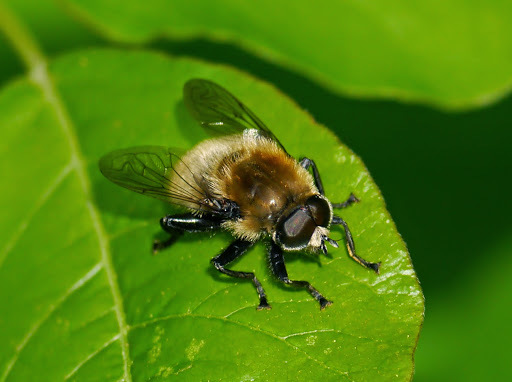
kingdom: Animalia
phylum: Arthropoda
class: Insecta
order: Diptera
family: Syrphidae
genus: Merodon
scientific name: Merodon equestris
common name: Greater bulb-fly
